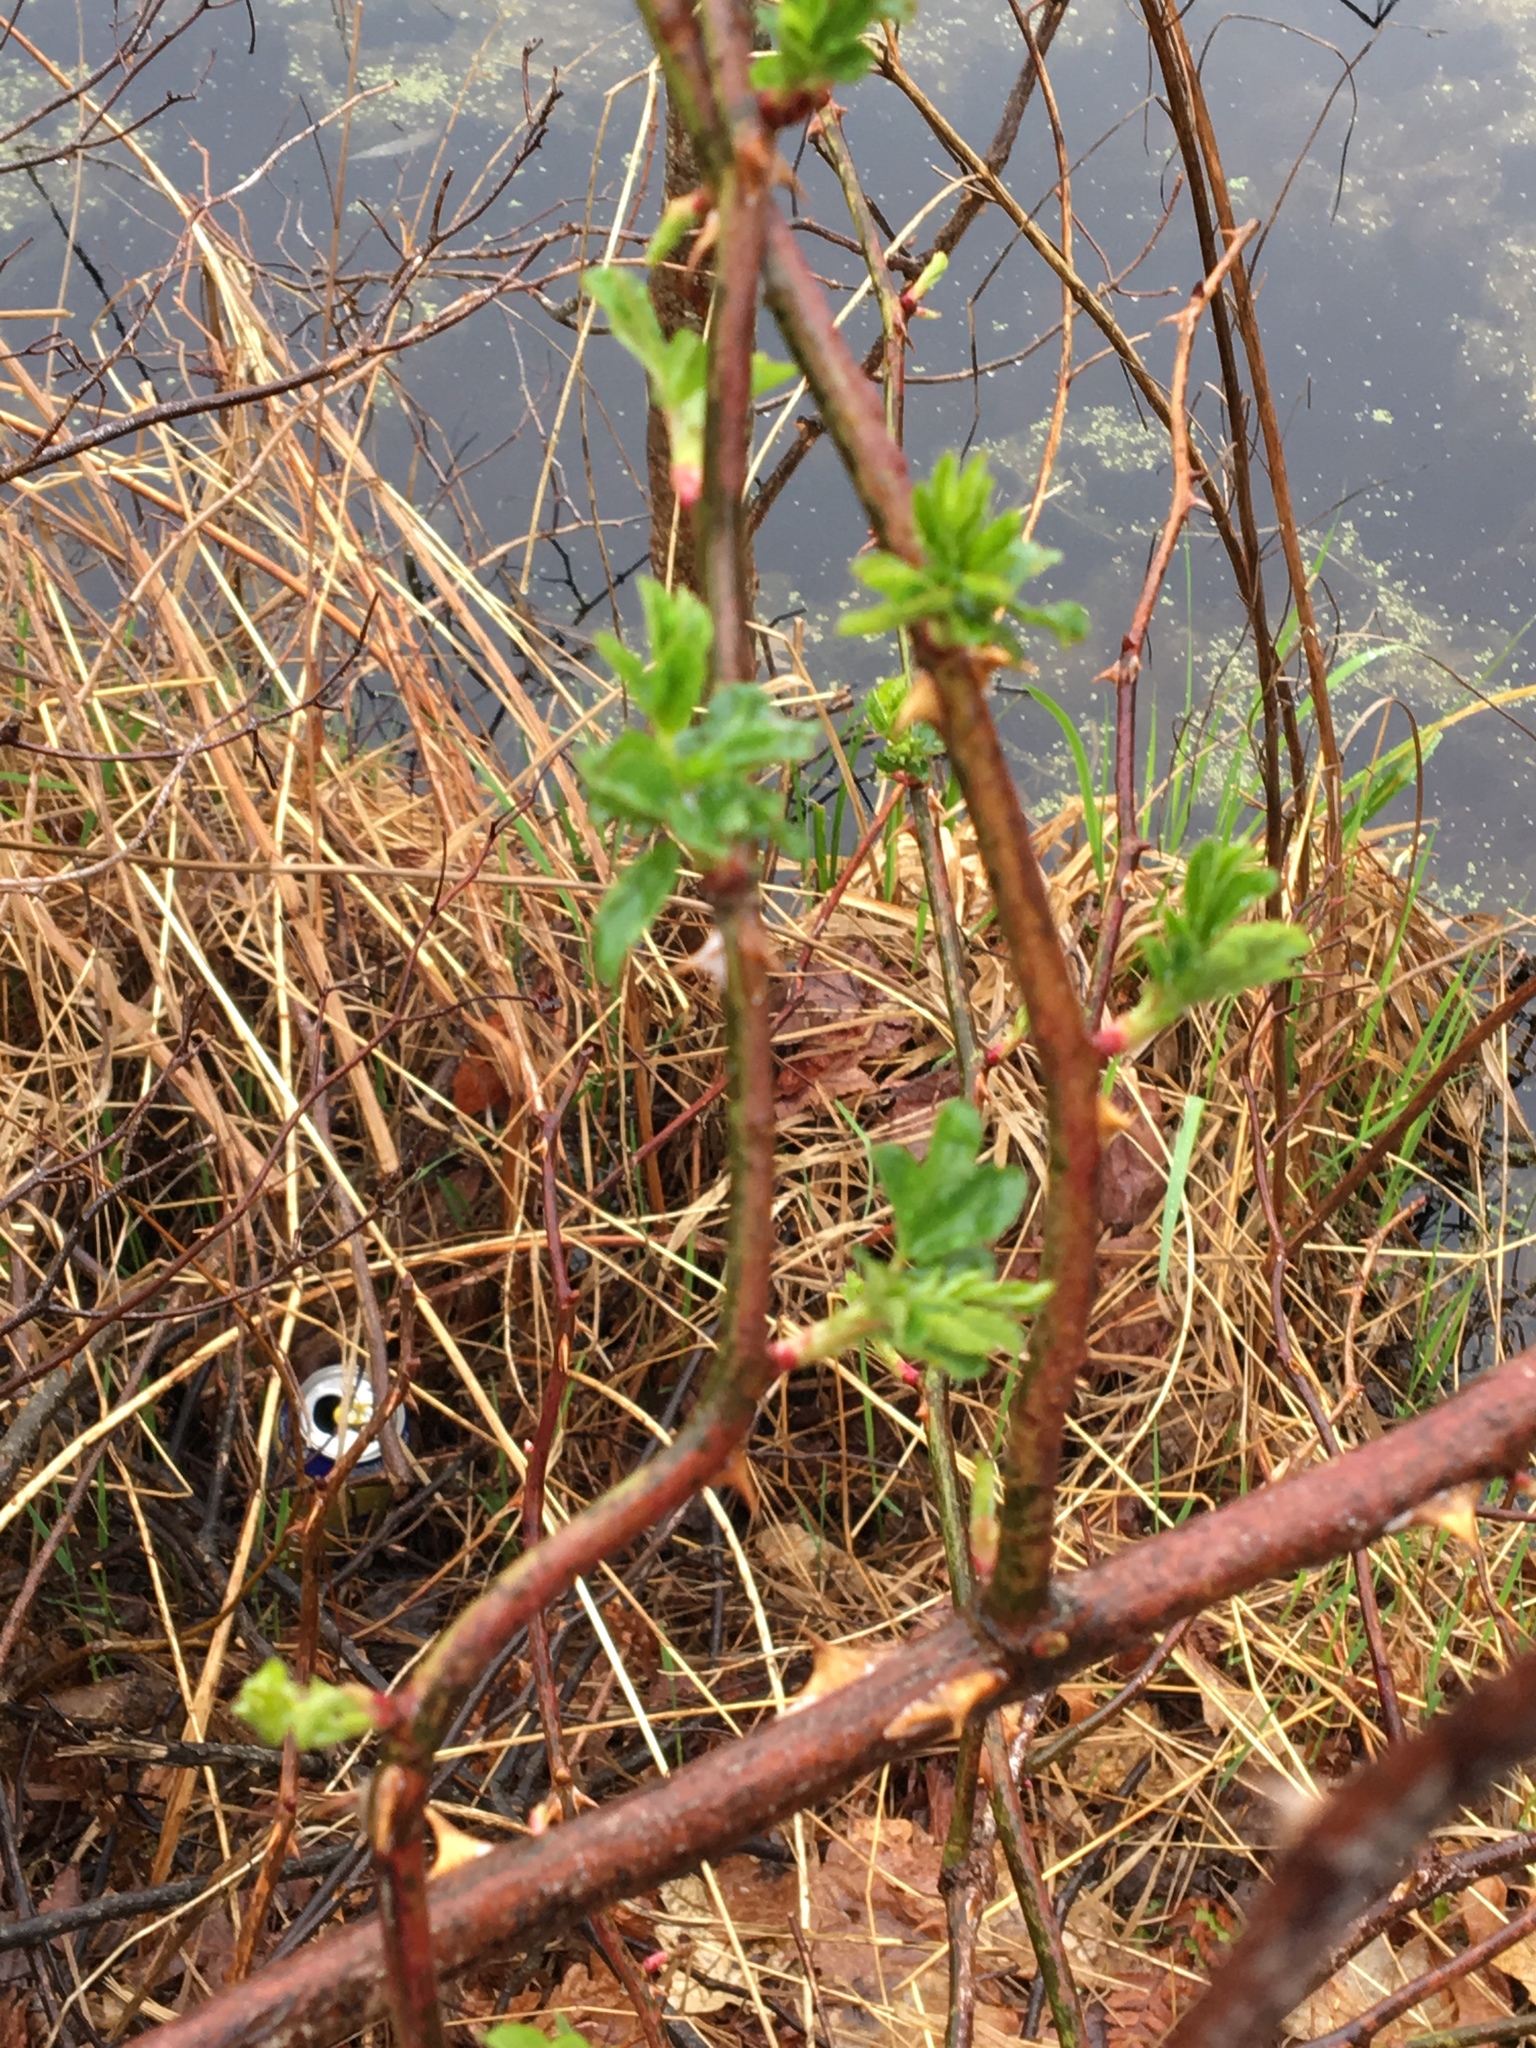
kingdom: Plantae
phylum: Tracheophyta
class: Magnoliopsida
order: Rosales
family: Rosaceae
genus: Rosa
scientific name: Rosa multiflora
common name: Multiflora rose
